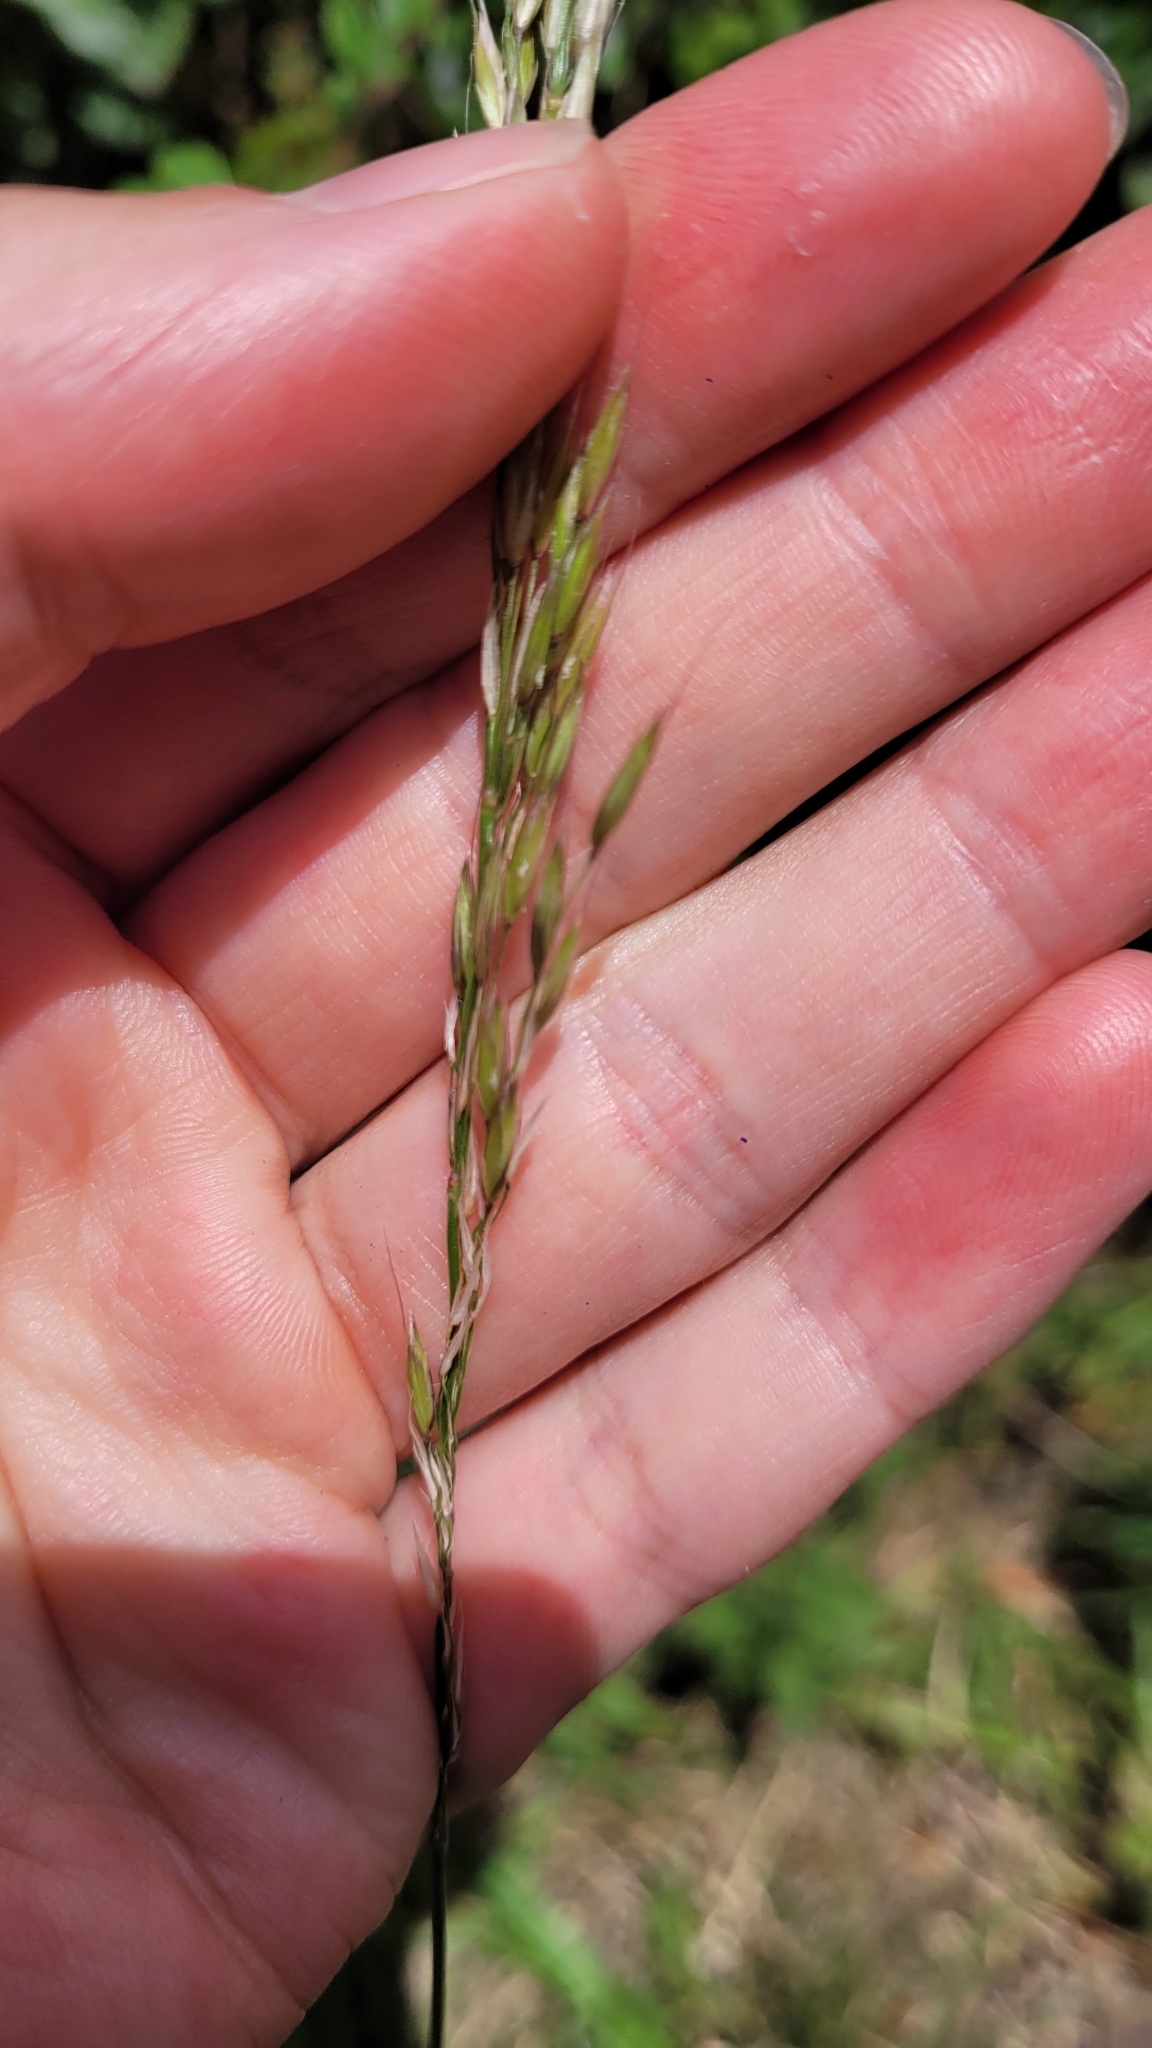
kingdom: Plantae
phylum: Tracheophyta
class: Liliopsida
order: Poales
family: Poaceae
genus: Arrhenatherum
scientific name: Arrhenatherum elatius
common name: Tall oatgrass
